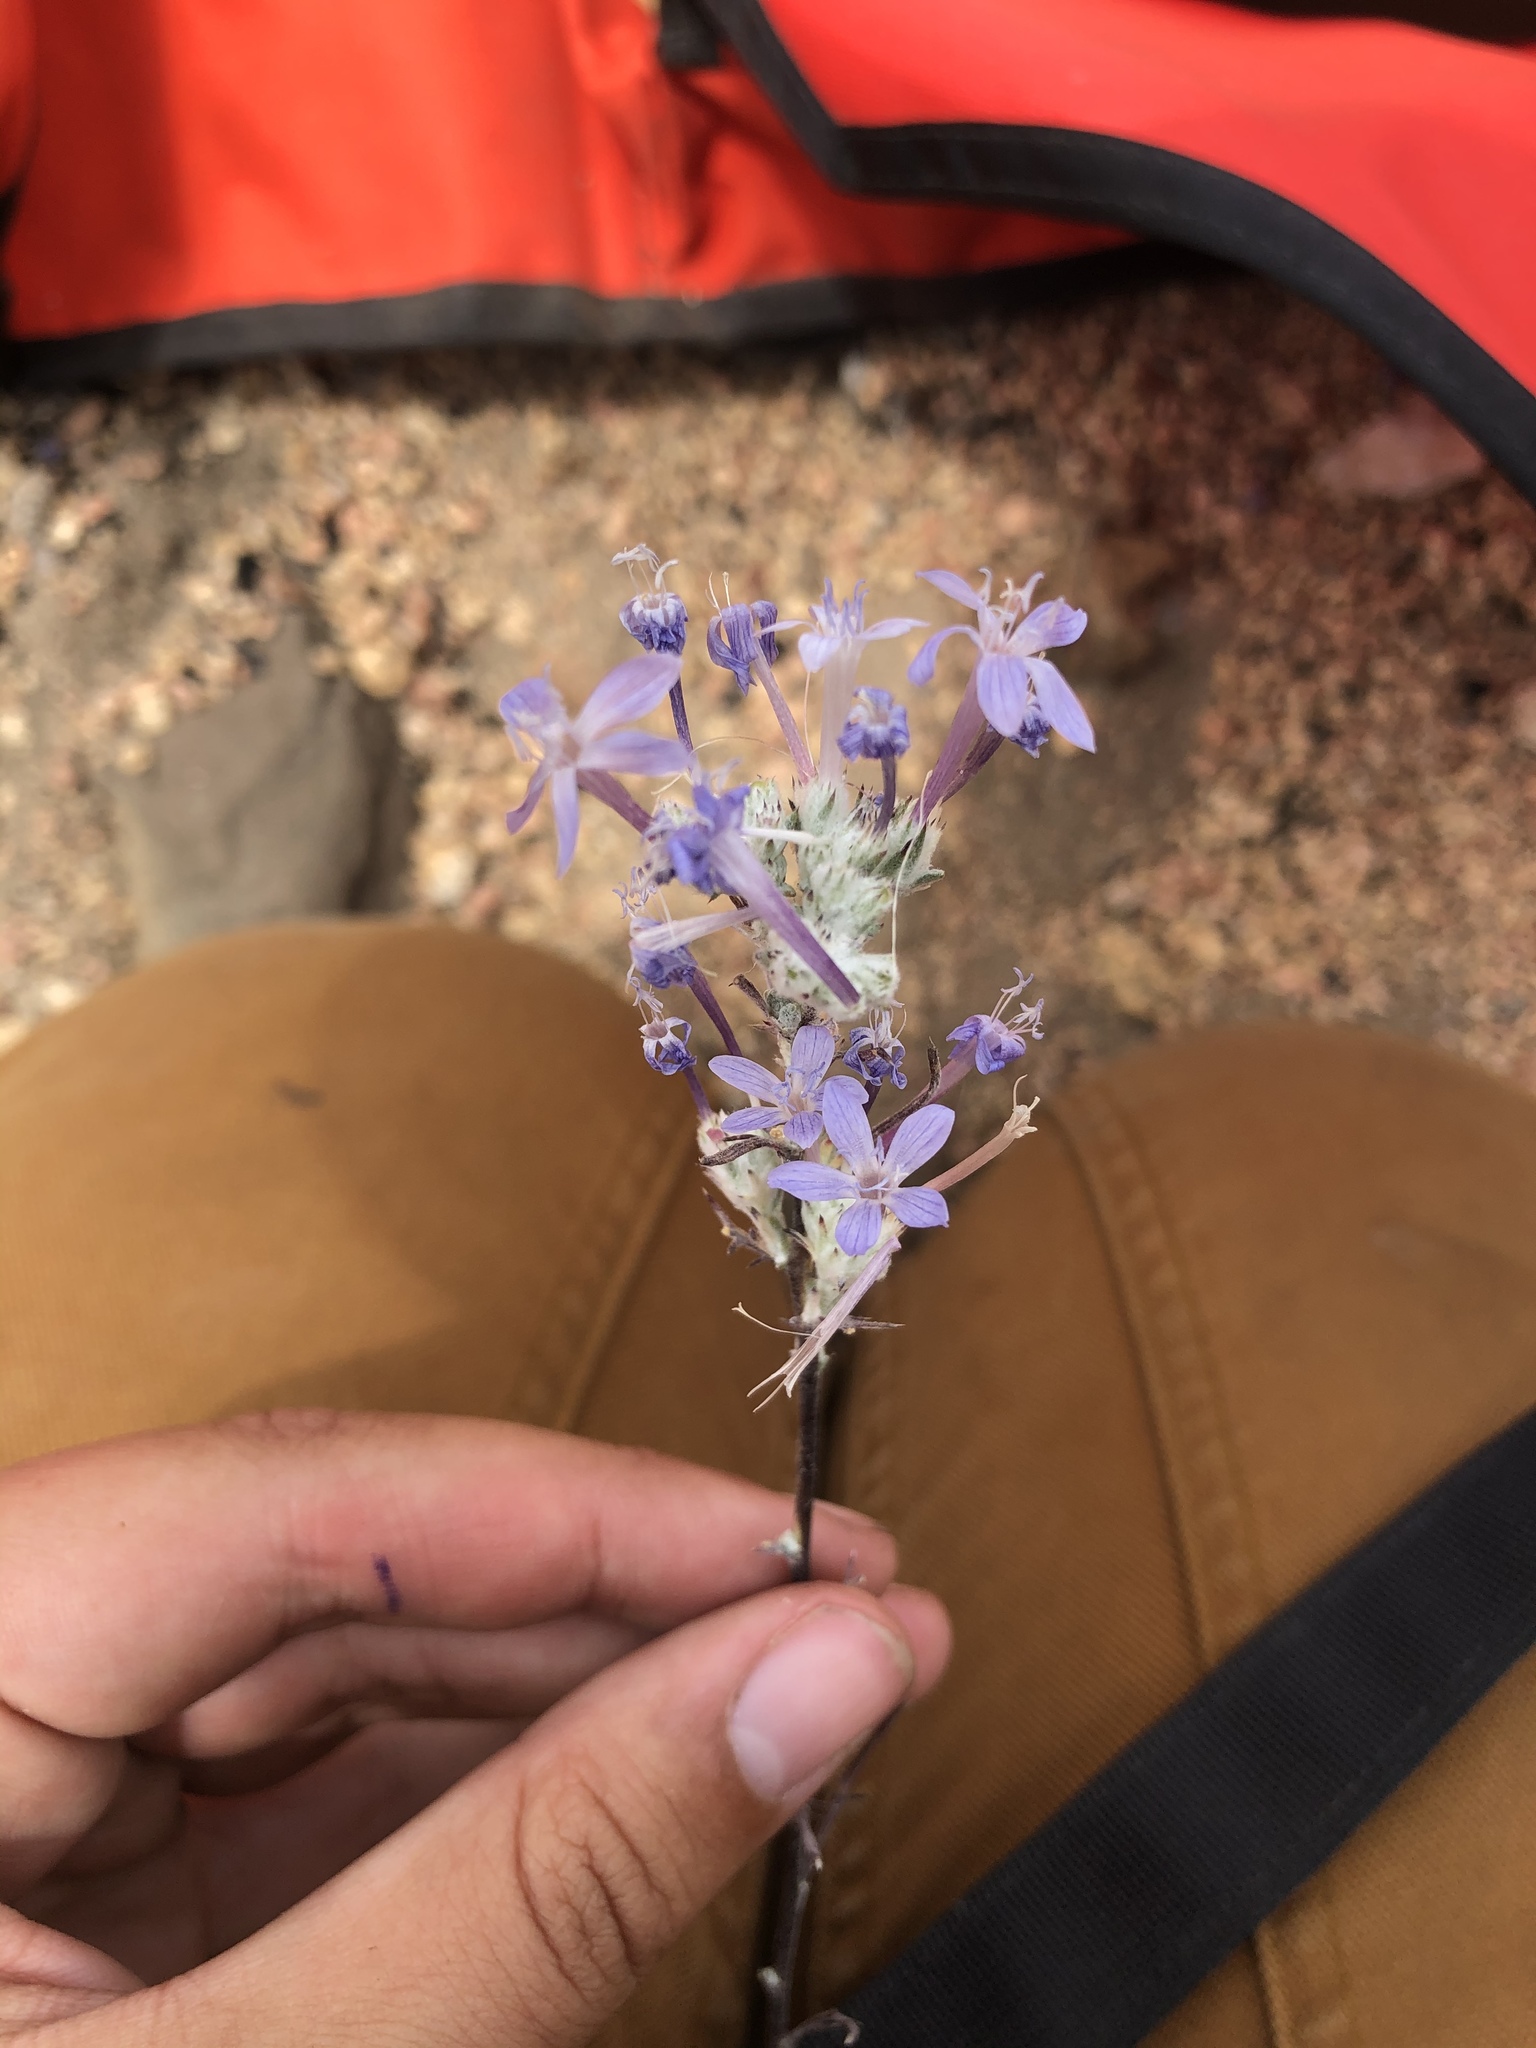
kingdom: Plantae
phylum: Tracheophyta
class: Magnoliopsida
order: Ericales
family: Polemoniaceae
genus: Eriastrum
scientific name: Eriastrum densifolium
